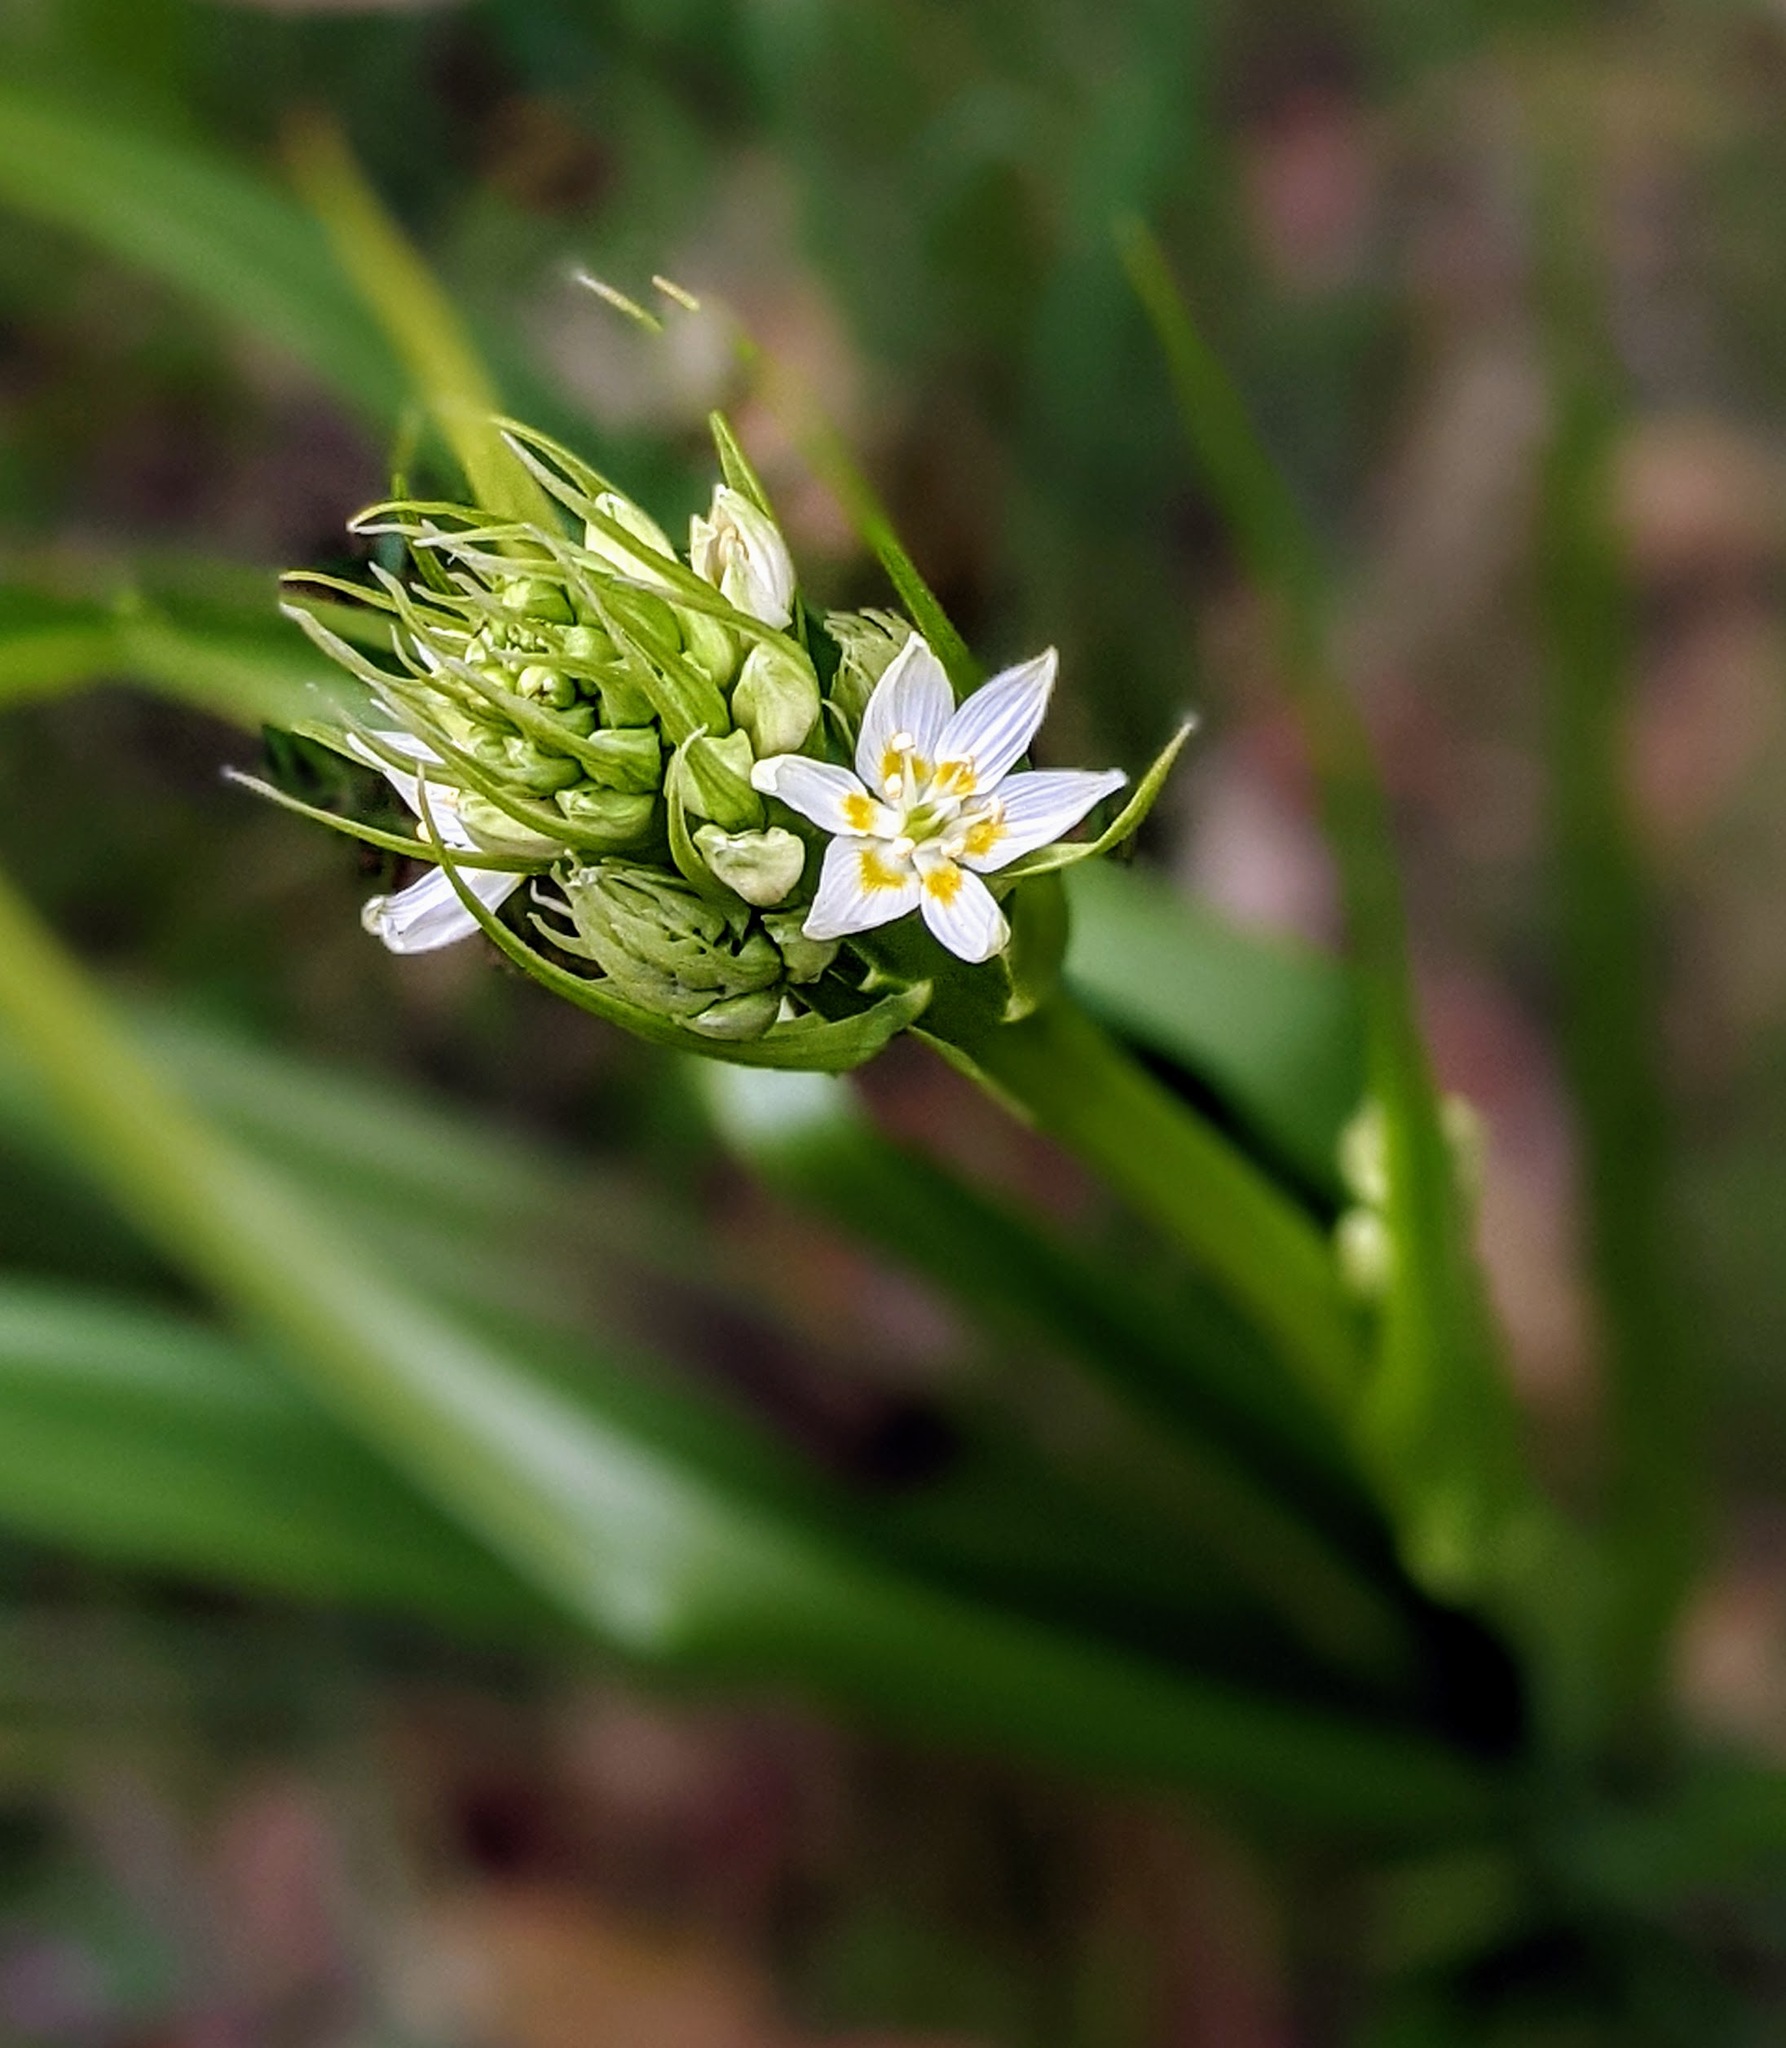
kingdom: Plantae
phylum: Tracheophyta
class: Liliopsida
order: Liliales
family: Melanthiaceae
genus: Toxicoscordion
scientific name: Toxicoscordion fremontii
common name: Fremont's death camas
